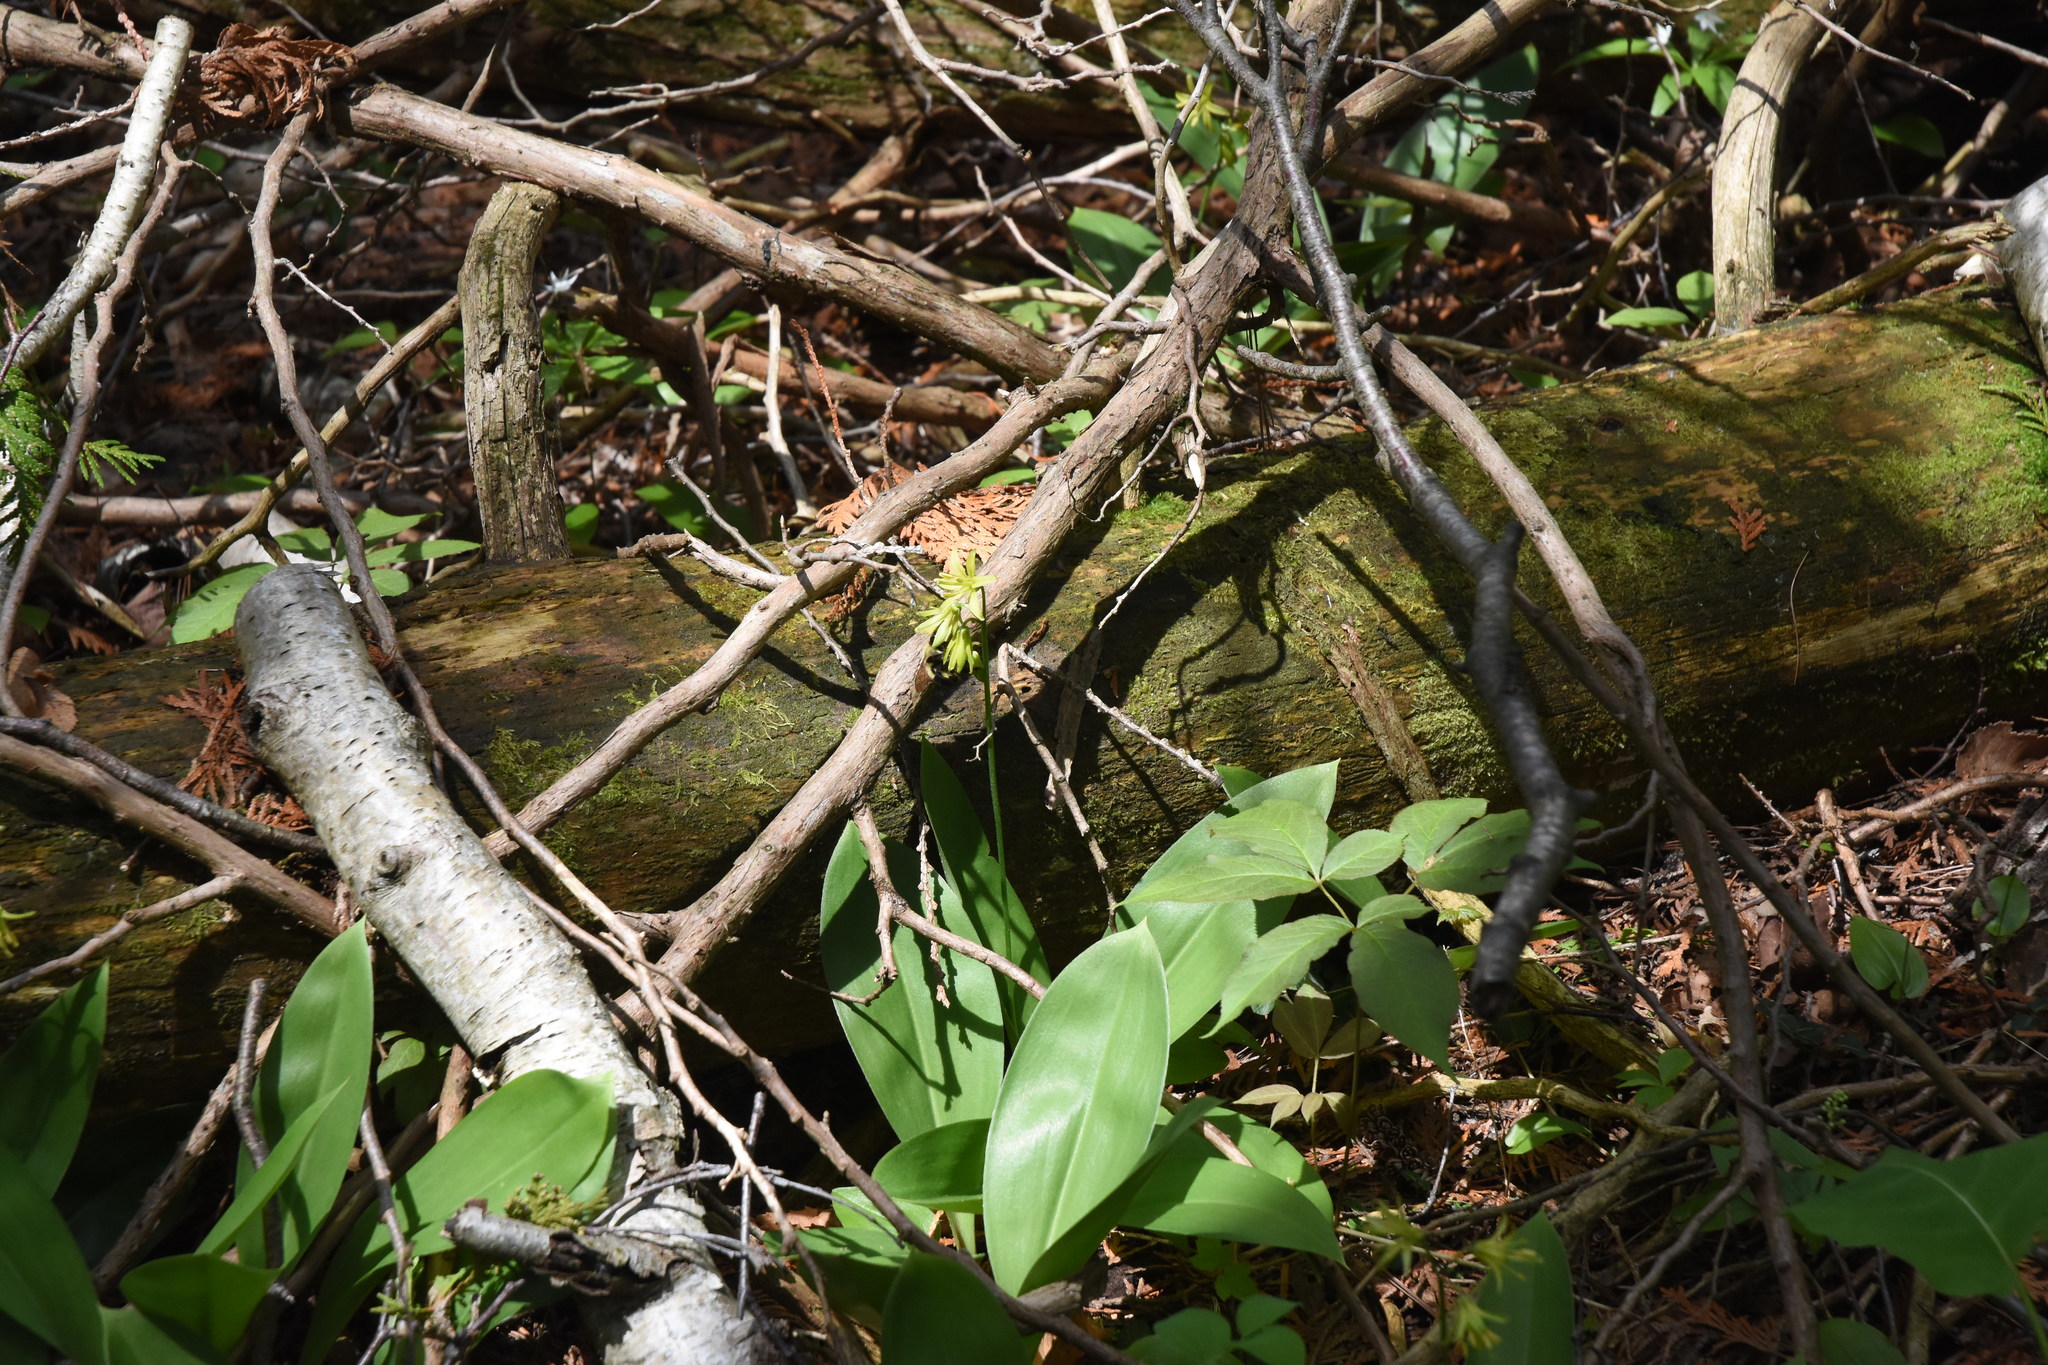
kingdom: Plantae
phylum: Tracheophyta
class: Liliopsida
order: Liliales
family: Liliaceae
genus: Clintonia
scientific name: Clintonia borealis
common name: Yellow clintonia
